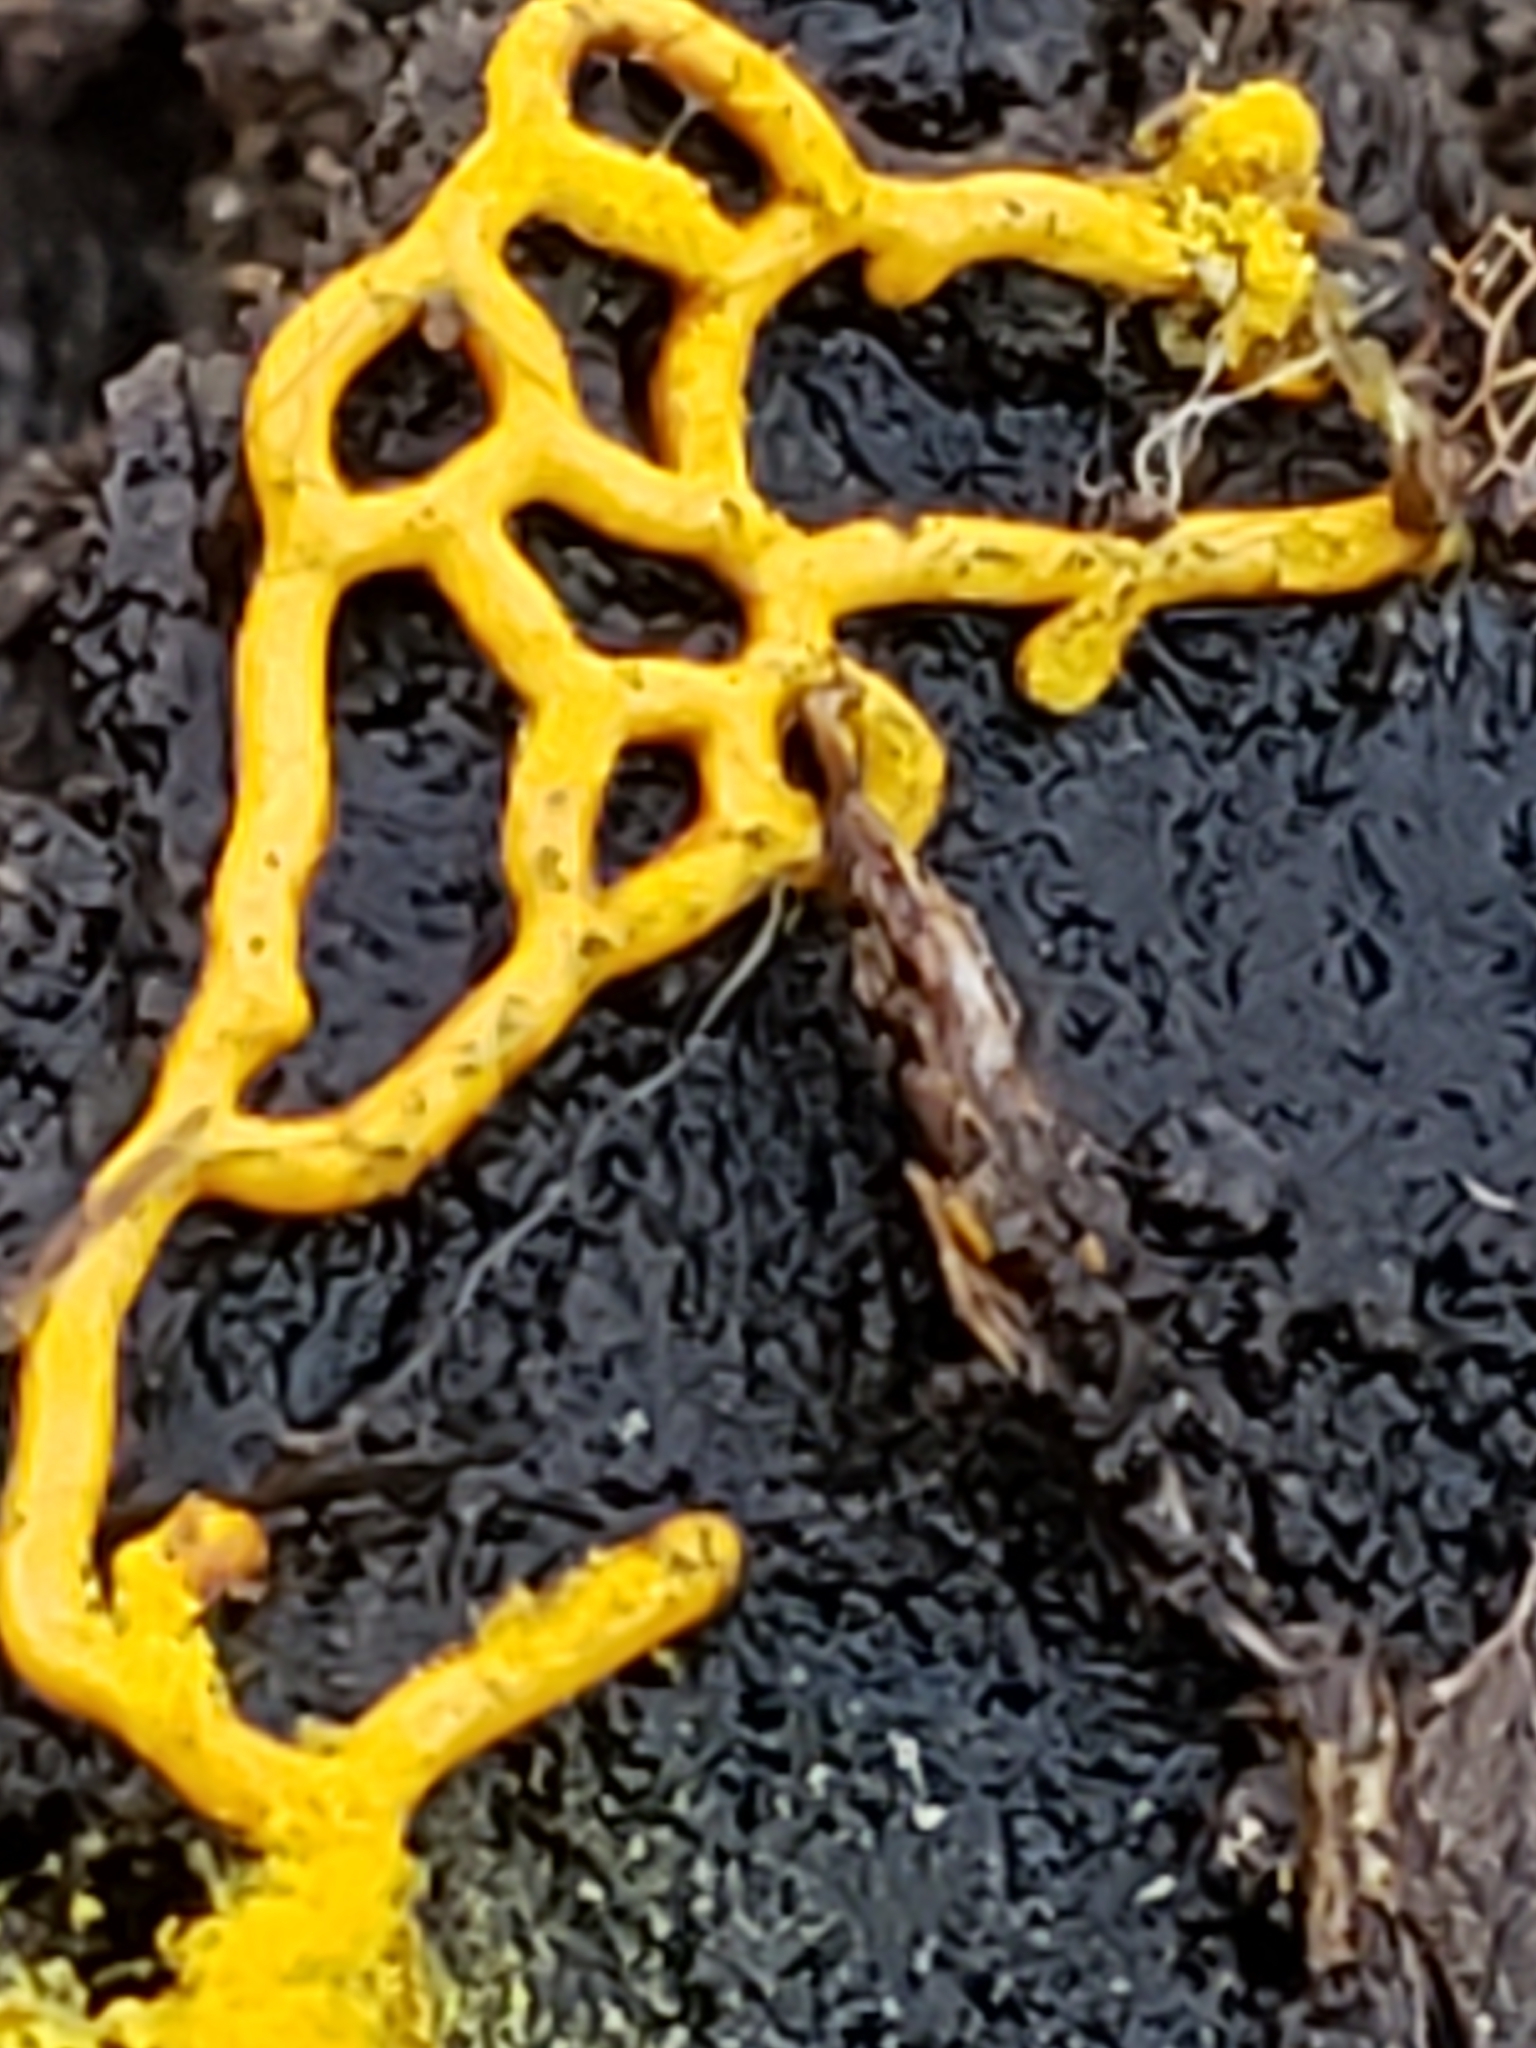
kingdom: Protozoa
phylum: Mycetozoa
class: Myxomycetes
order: Trichiales
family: Arcyriaceae
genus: Hemitrichia
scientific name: Hemitrichia serpula
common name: Pretzel slime mold
